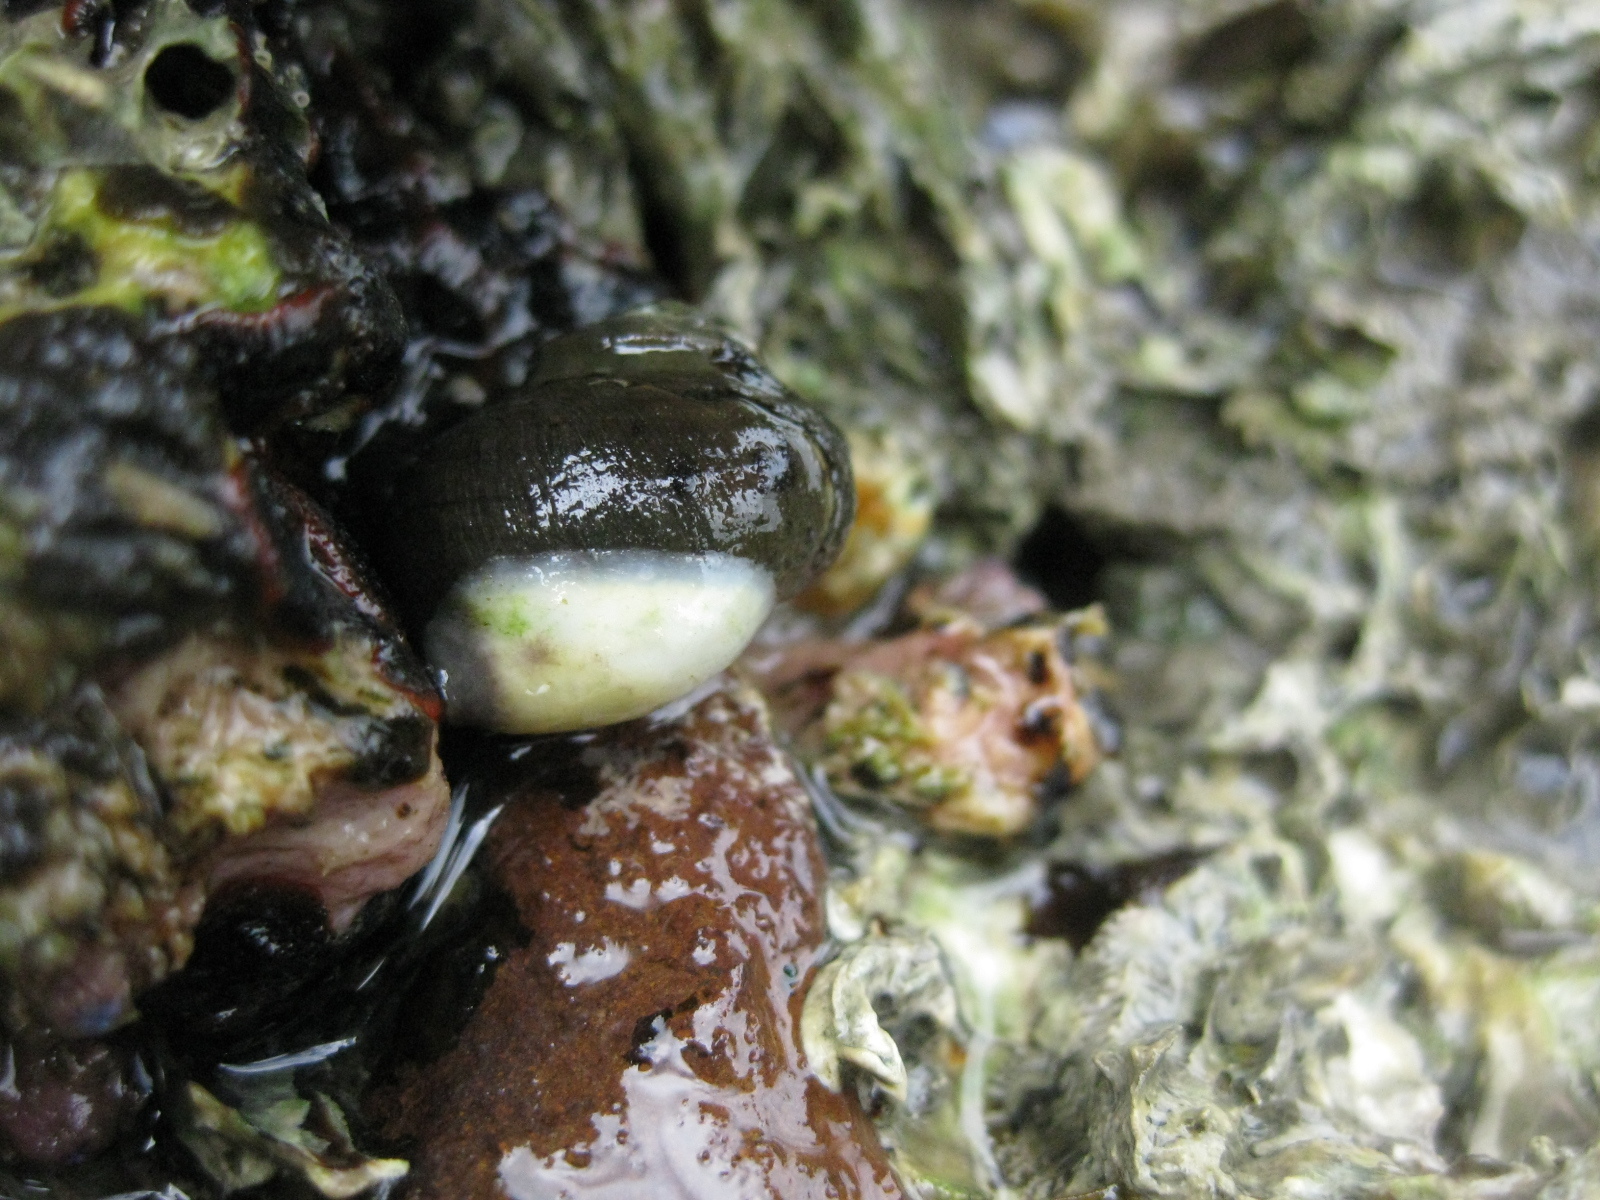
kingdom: Animalia
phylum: Mollusca
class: Gastropoda
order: Trochida
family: Turbinidae
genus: Lunella
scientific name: Lunella smaragda
